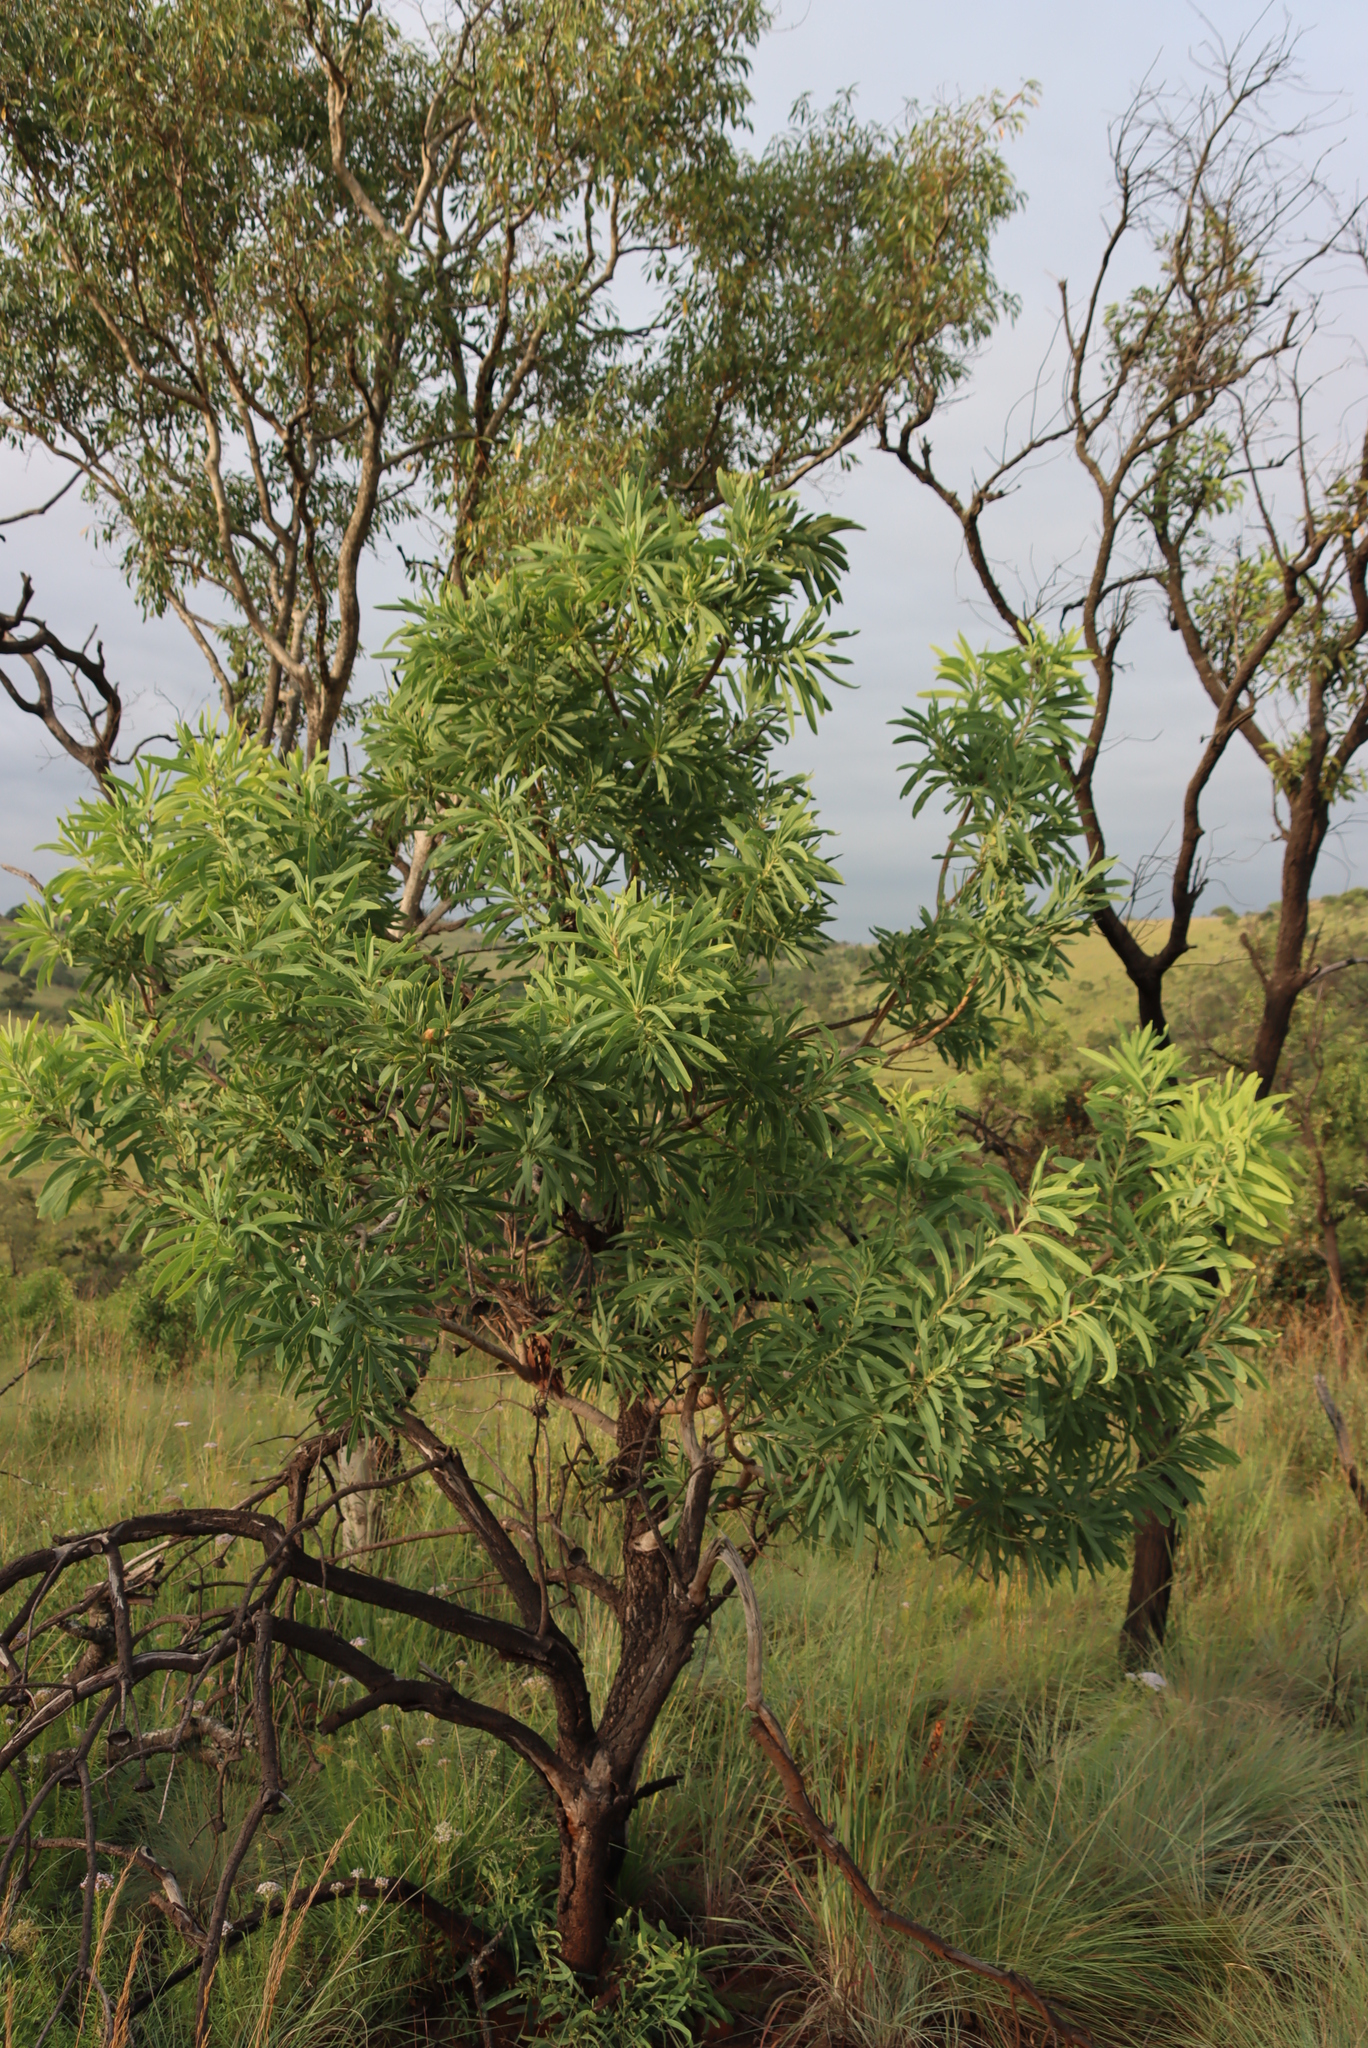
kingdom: Plantae
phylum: Tracheophyta
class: Magnoliopsida
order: Proteales
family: Proteaceae
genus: Protea
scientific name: Protea caffra
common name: Common sugarbush
